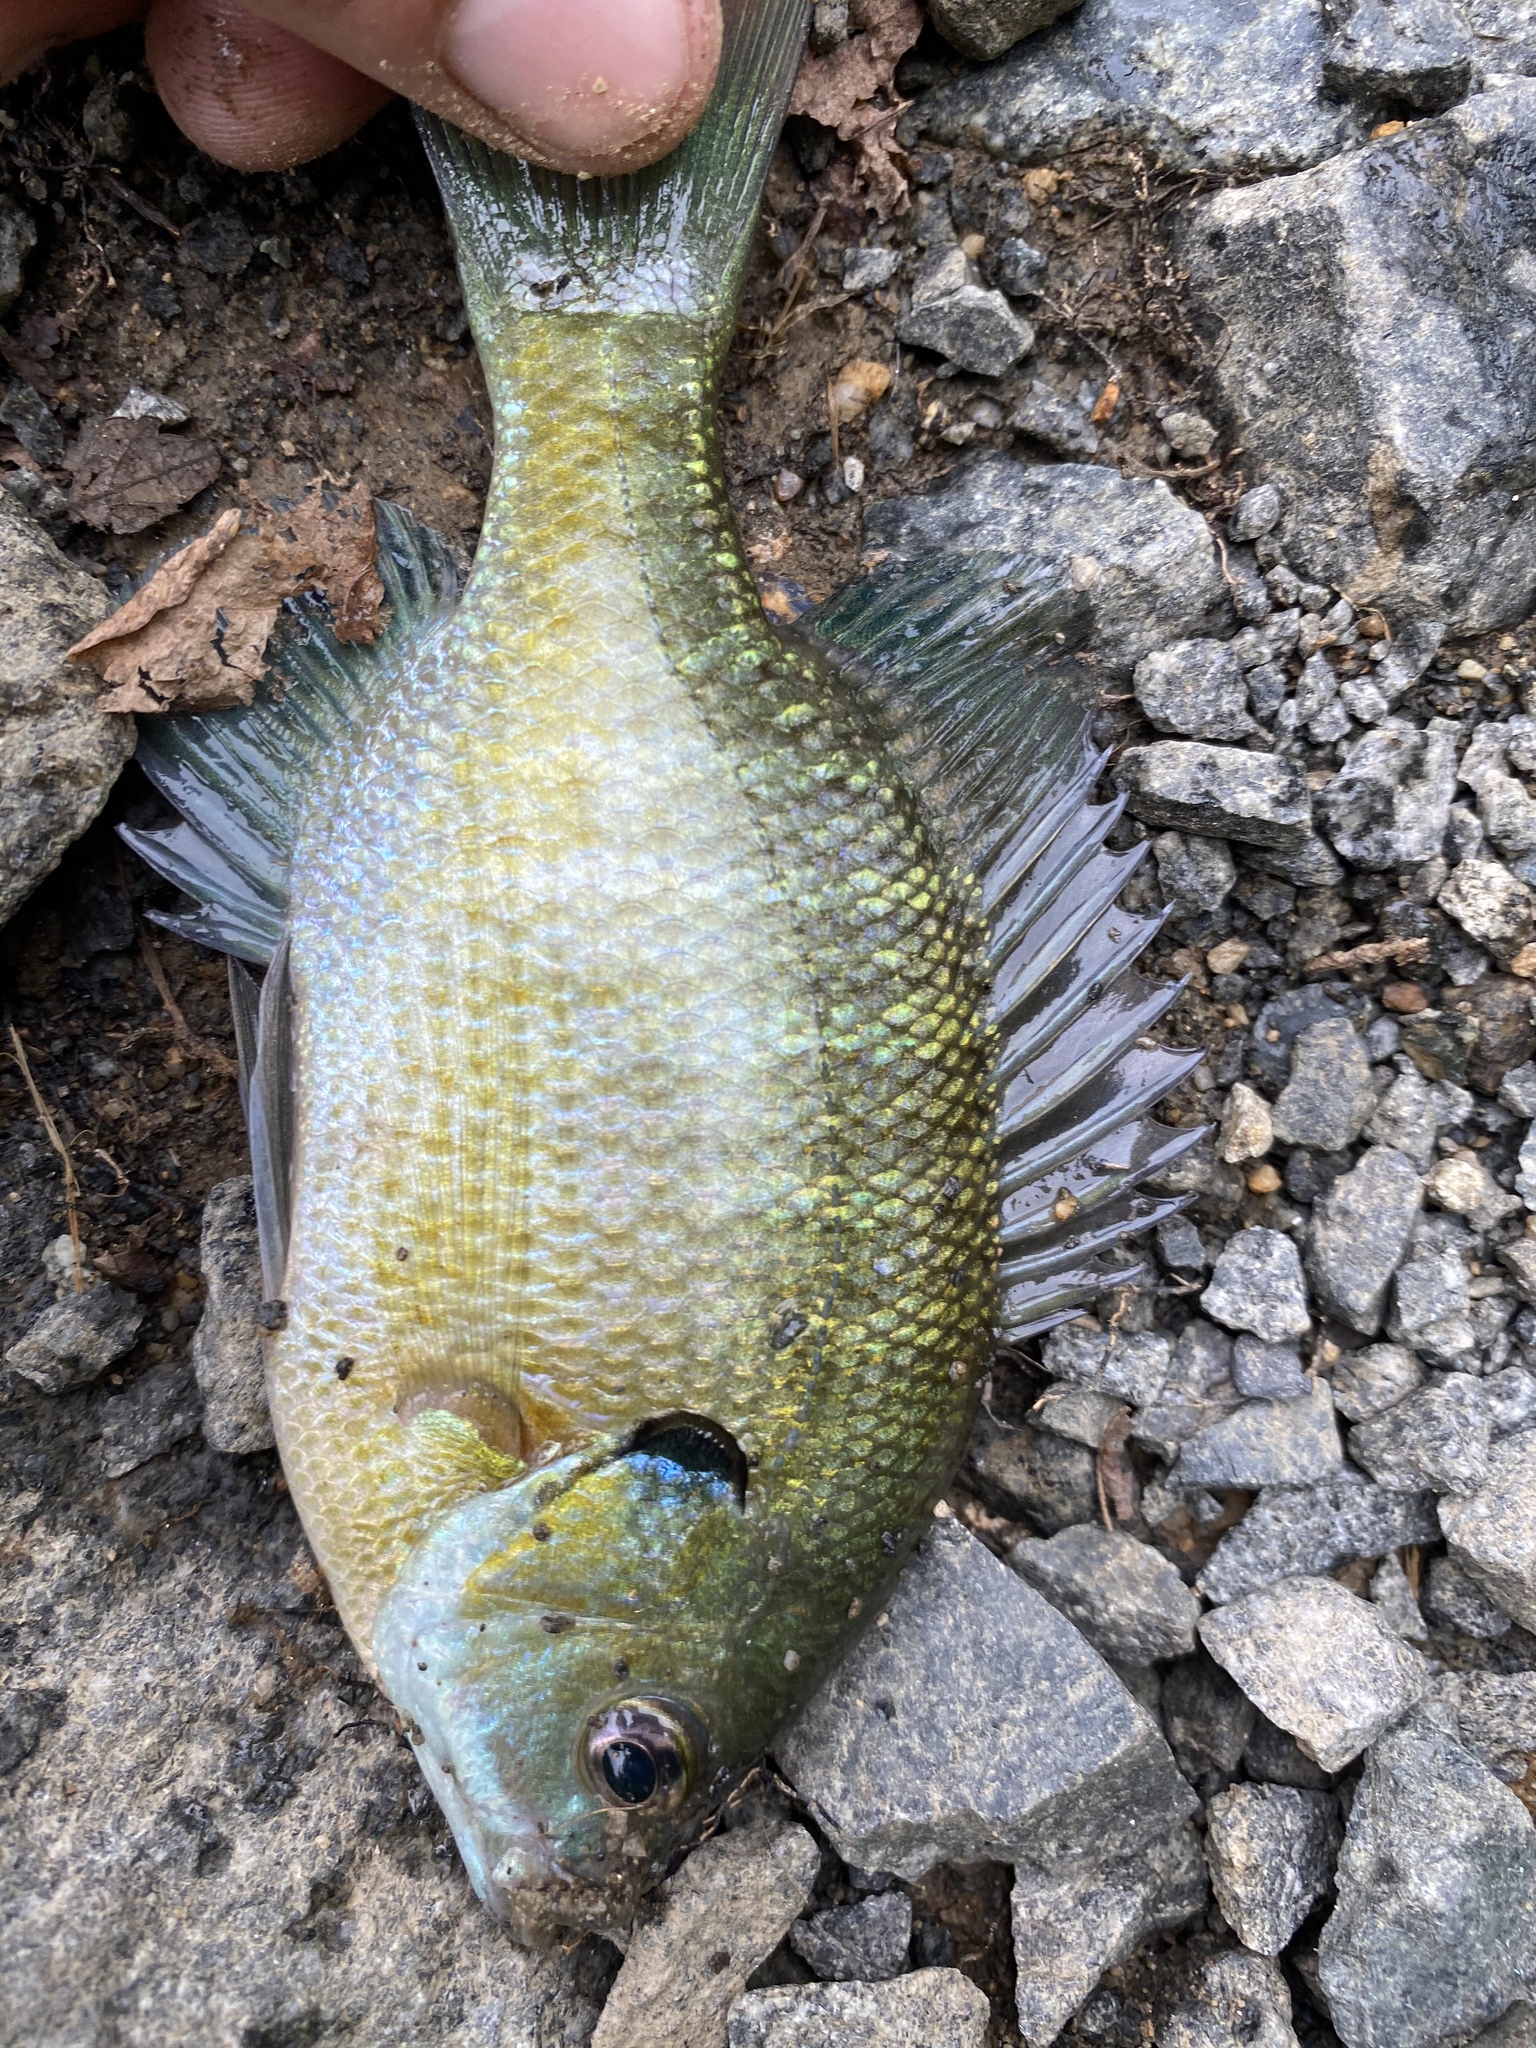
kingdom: Animalia
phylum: Chordata
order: Perciformes
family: Centrarchidae
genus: Lepomis
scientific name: Lepomis macrochirus
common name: Bluegill
